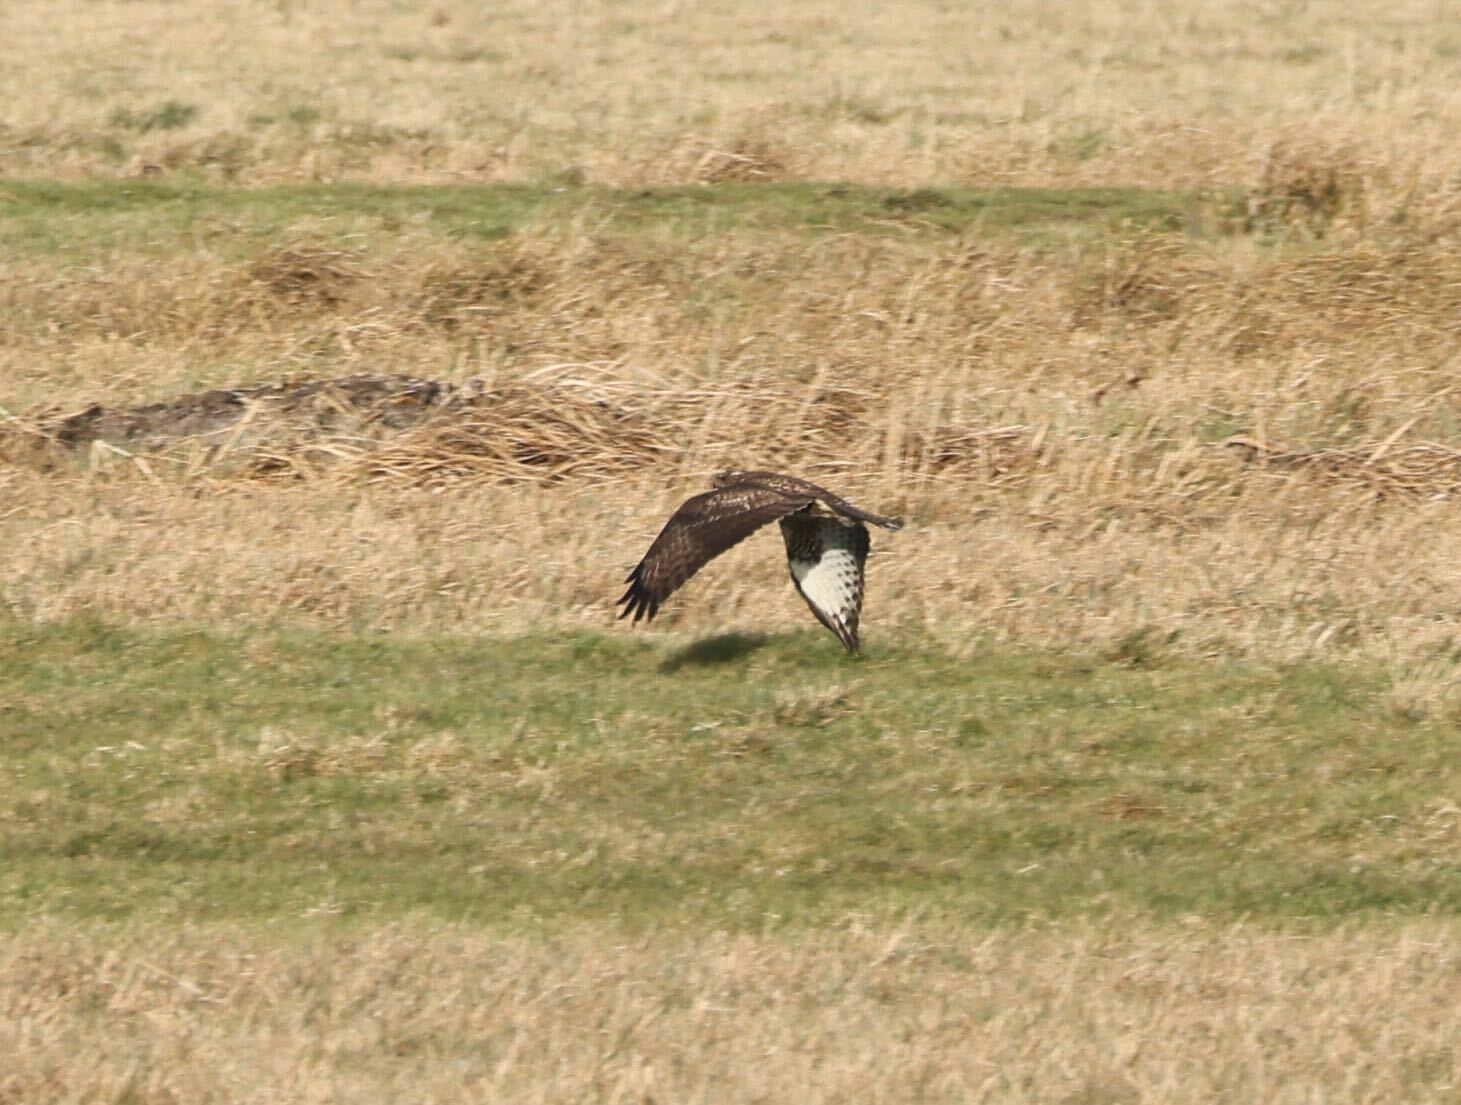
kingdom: Animalia
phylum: Chordata
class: Aves
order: Accipitriformes
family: Accipitridae
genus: Buteo
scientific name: Buteo buteo
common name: Common buzzard
